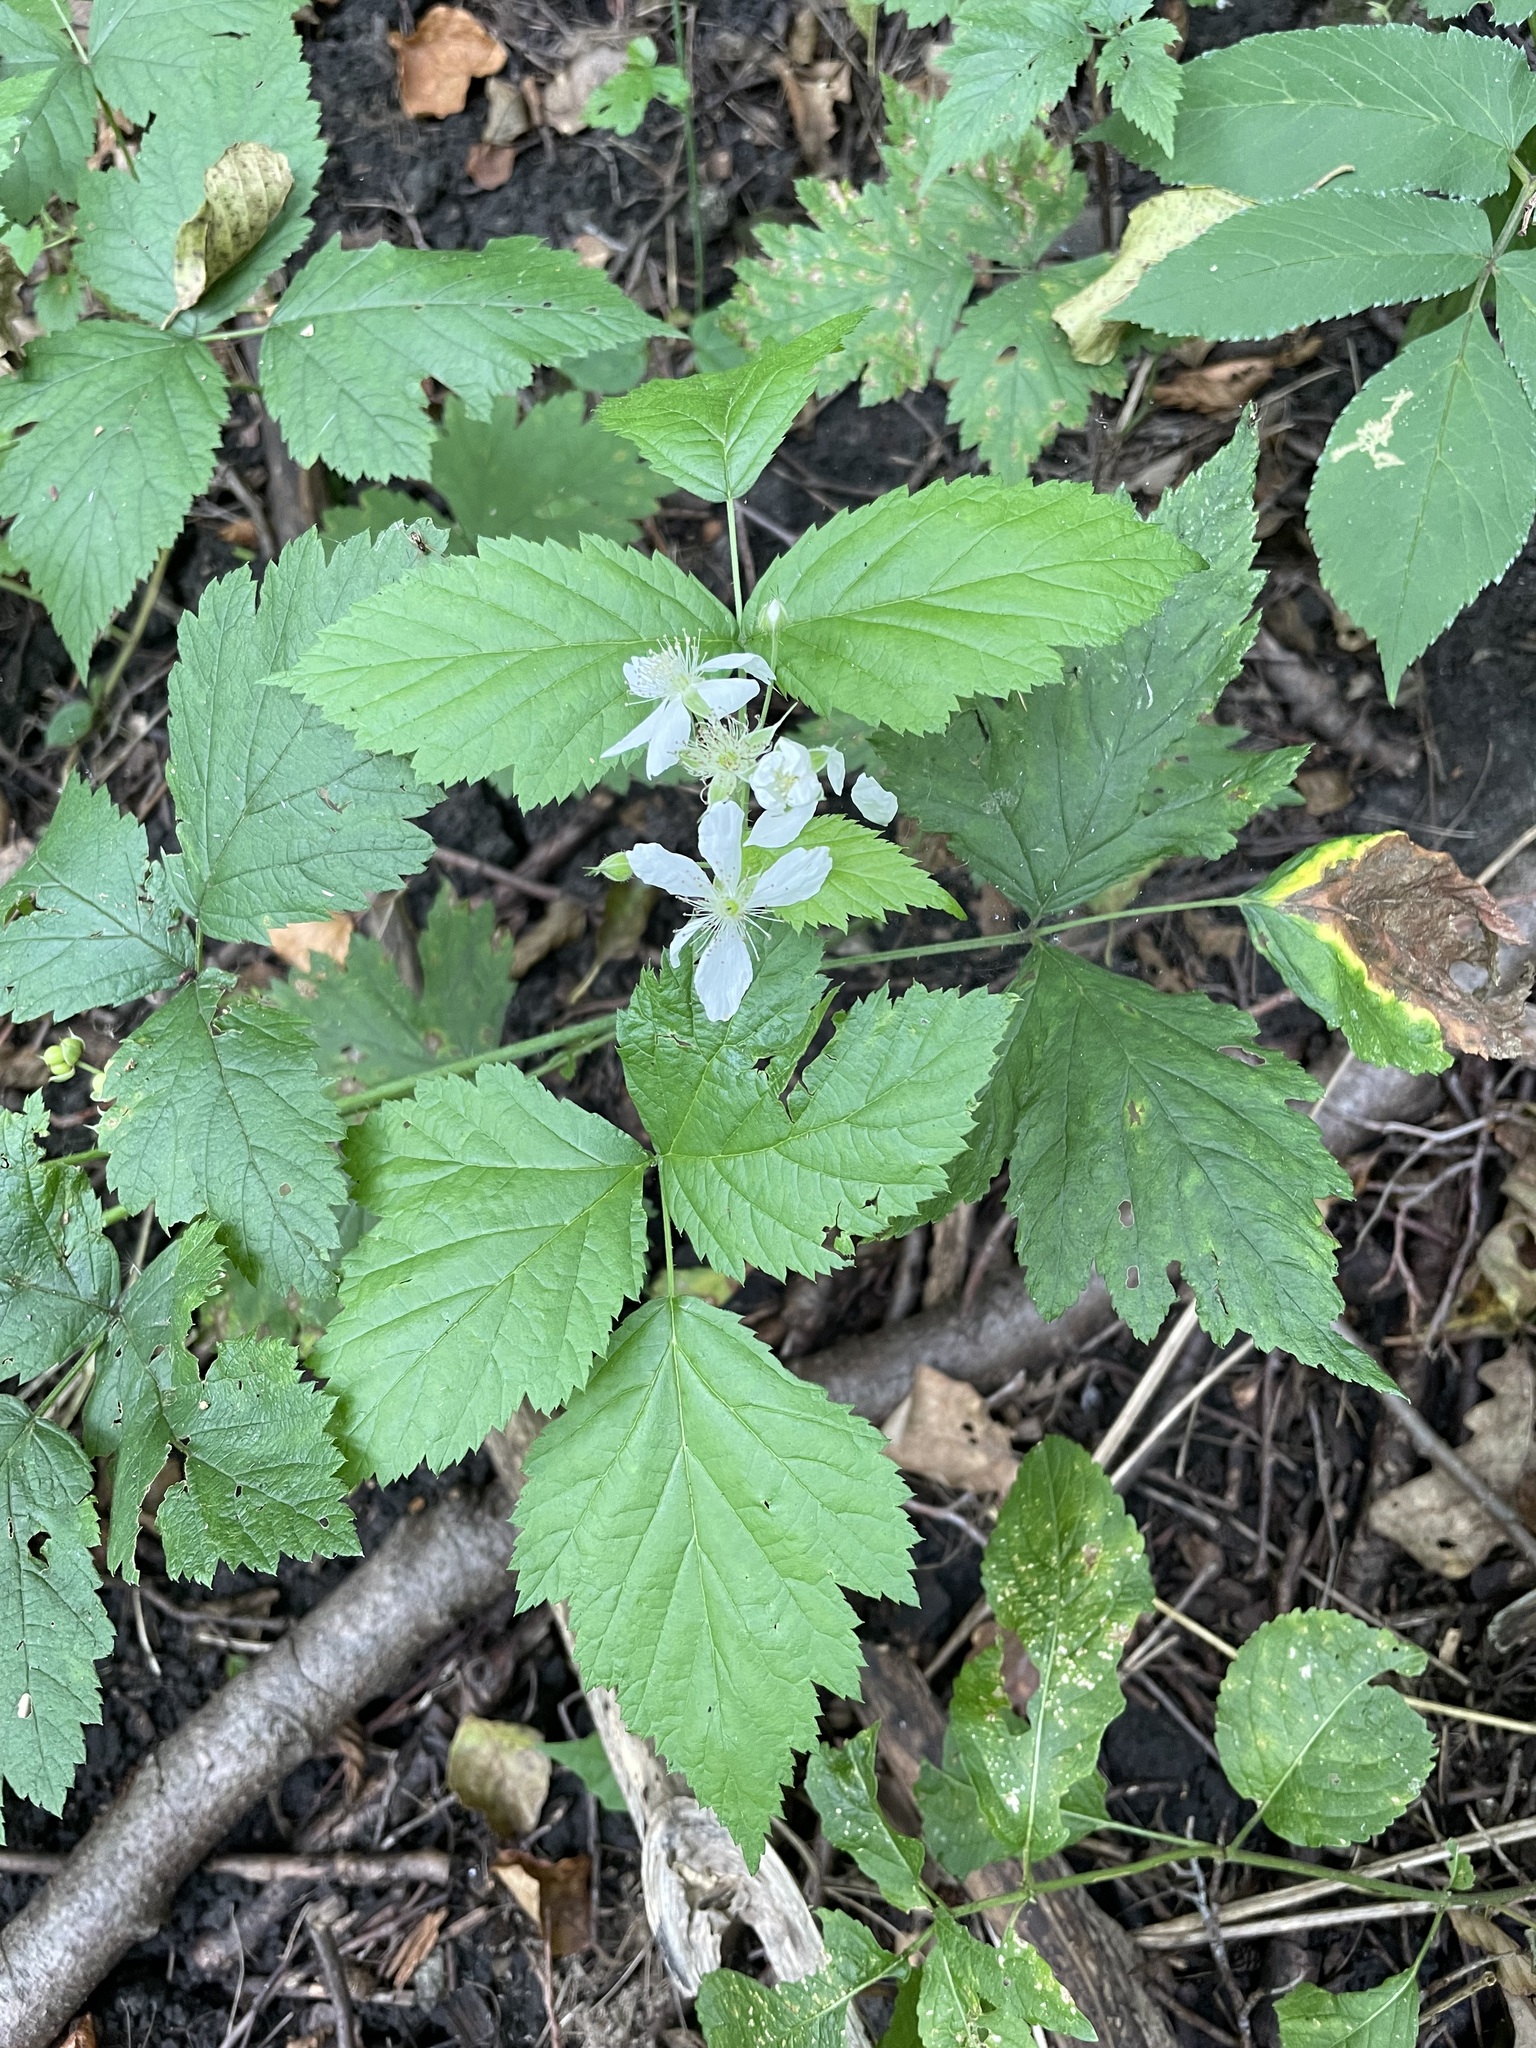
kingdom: Plantae
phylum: Tracheophyta
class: Magnoliopsida
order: Rosales
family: Rosaceae
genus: Rubus
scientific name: Rubus caesius
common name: Dewberry
